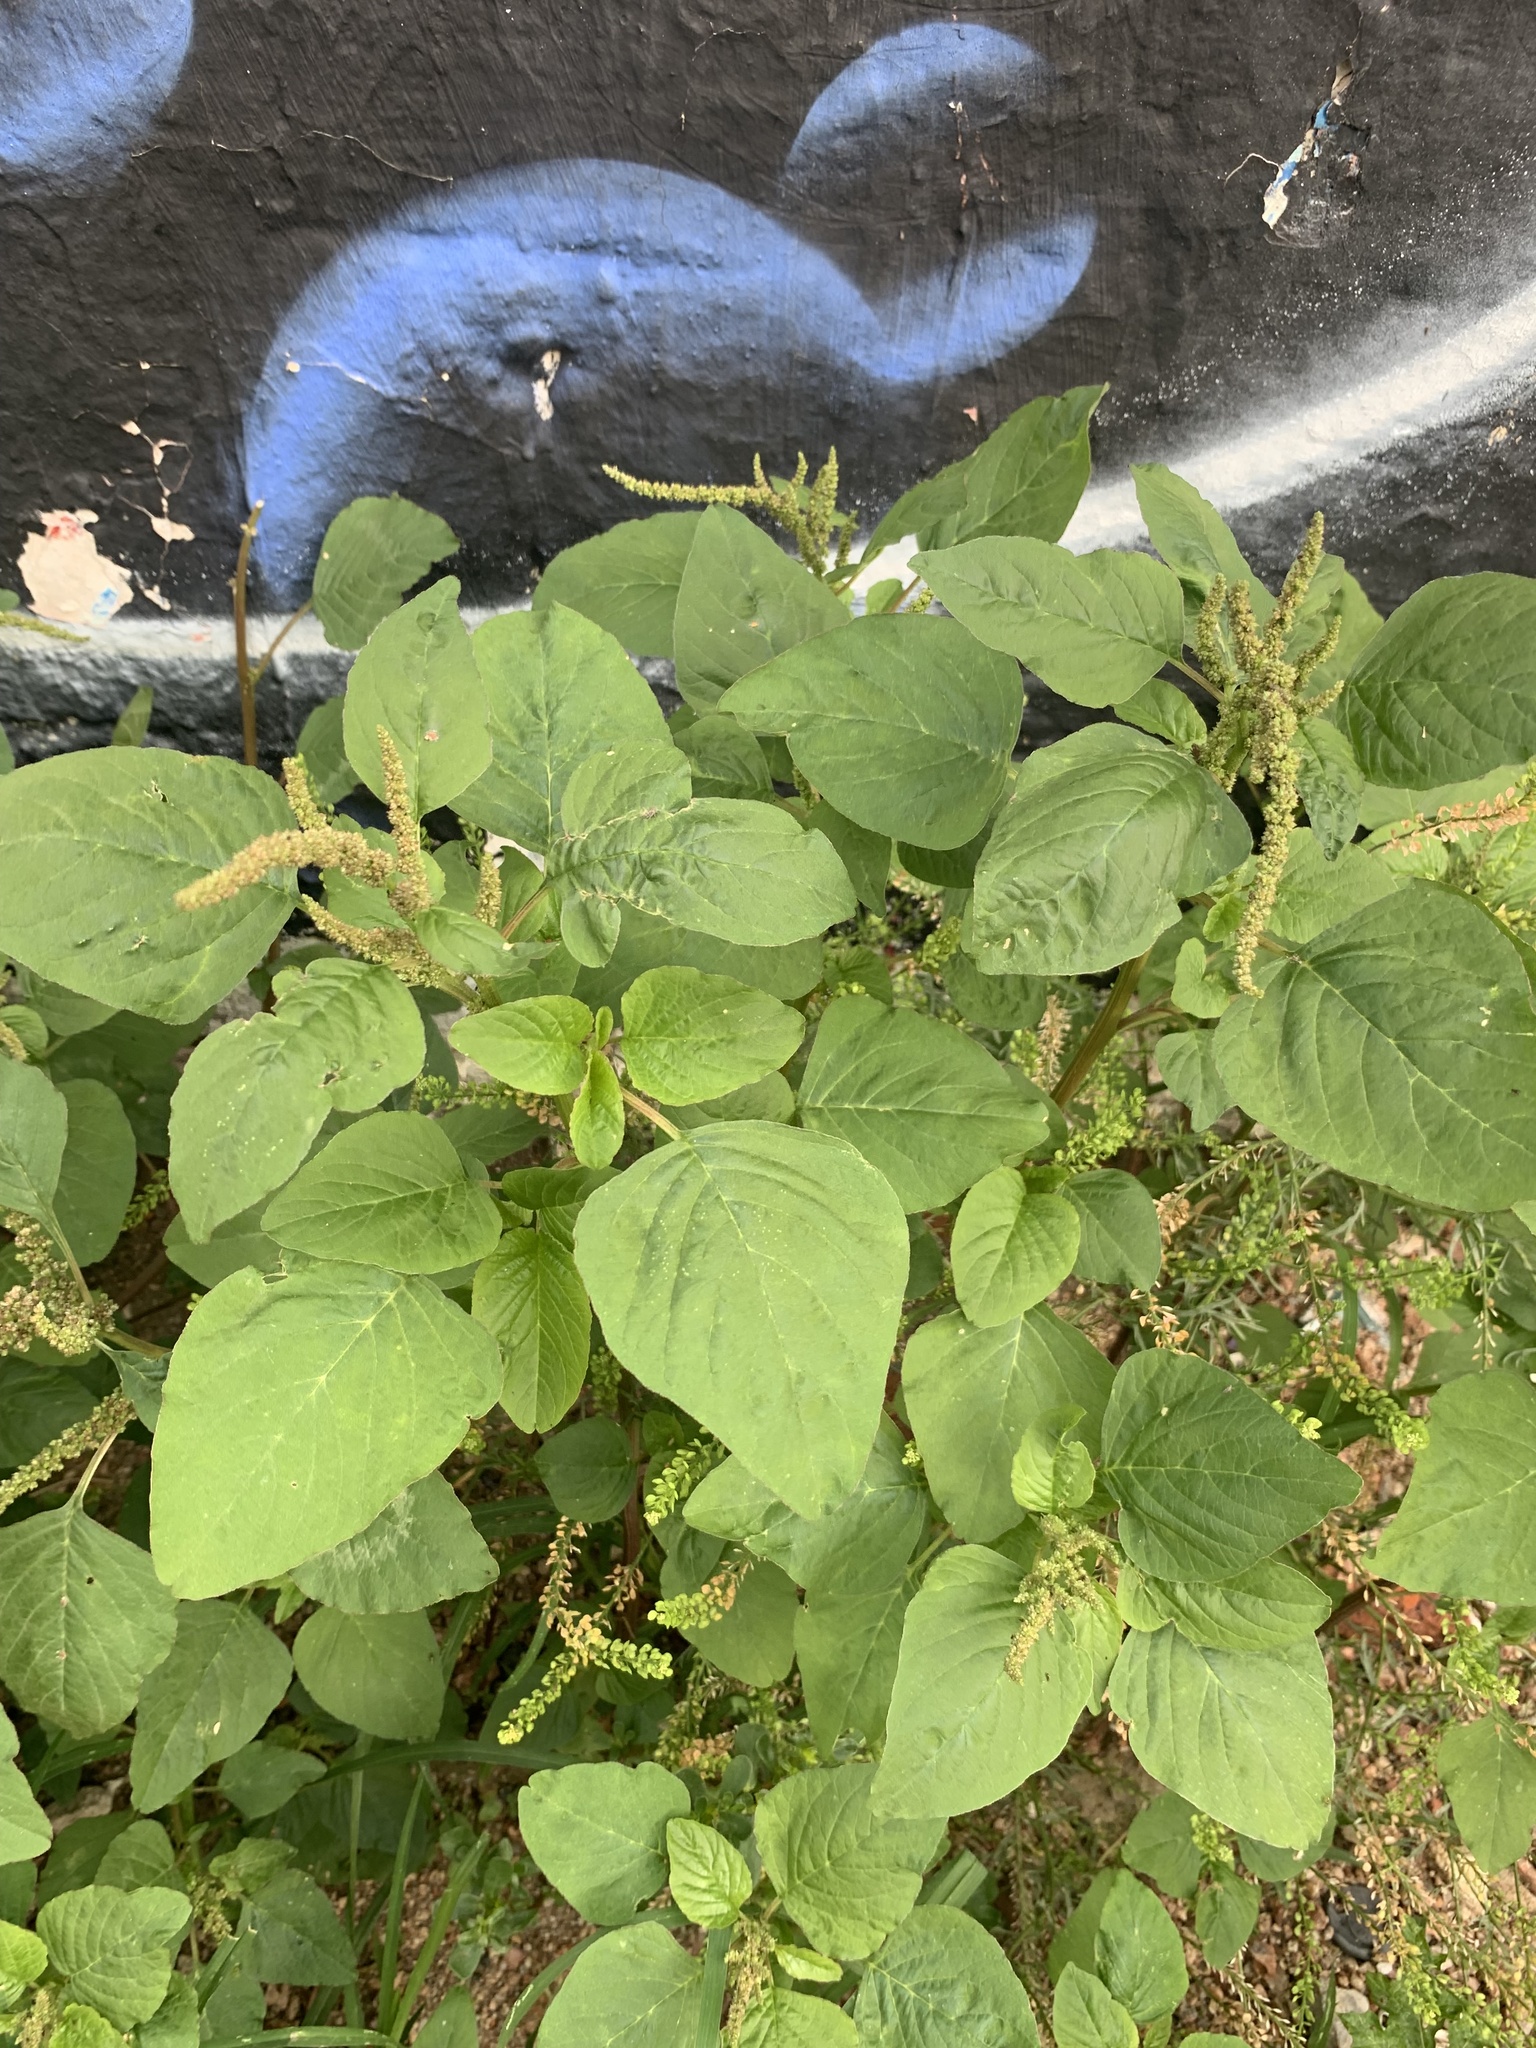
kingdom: Plantae
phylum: Tracheophyta
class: Magnoliopsida
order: Caryophyllales
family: Amaranthaceae
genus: Amaranthus
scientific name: Amaranthus viridis
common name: Slender amaranth
